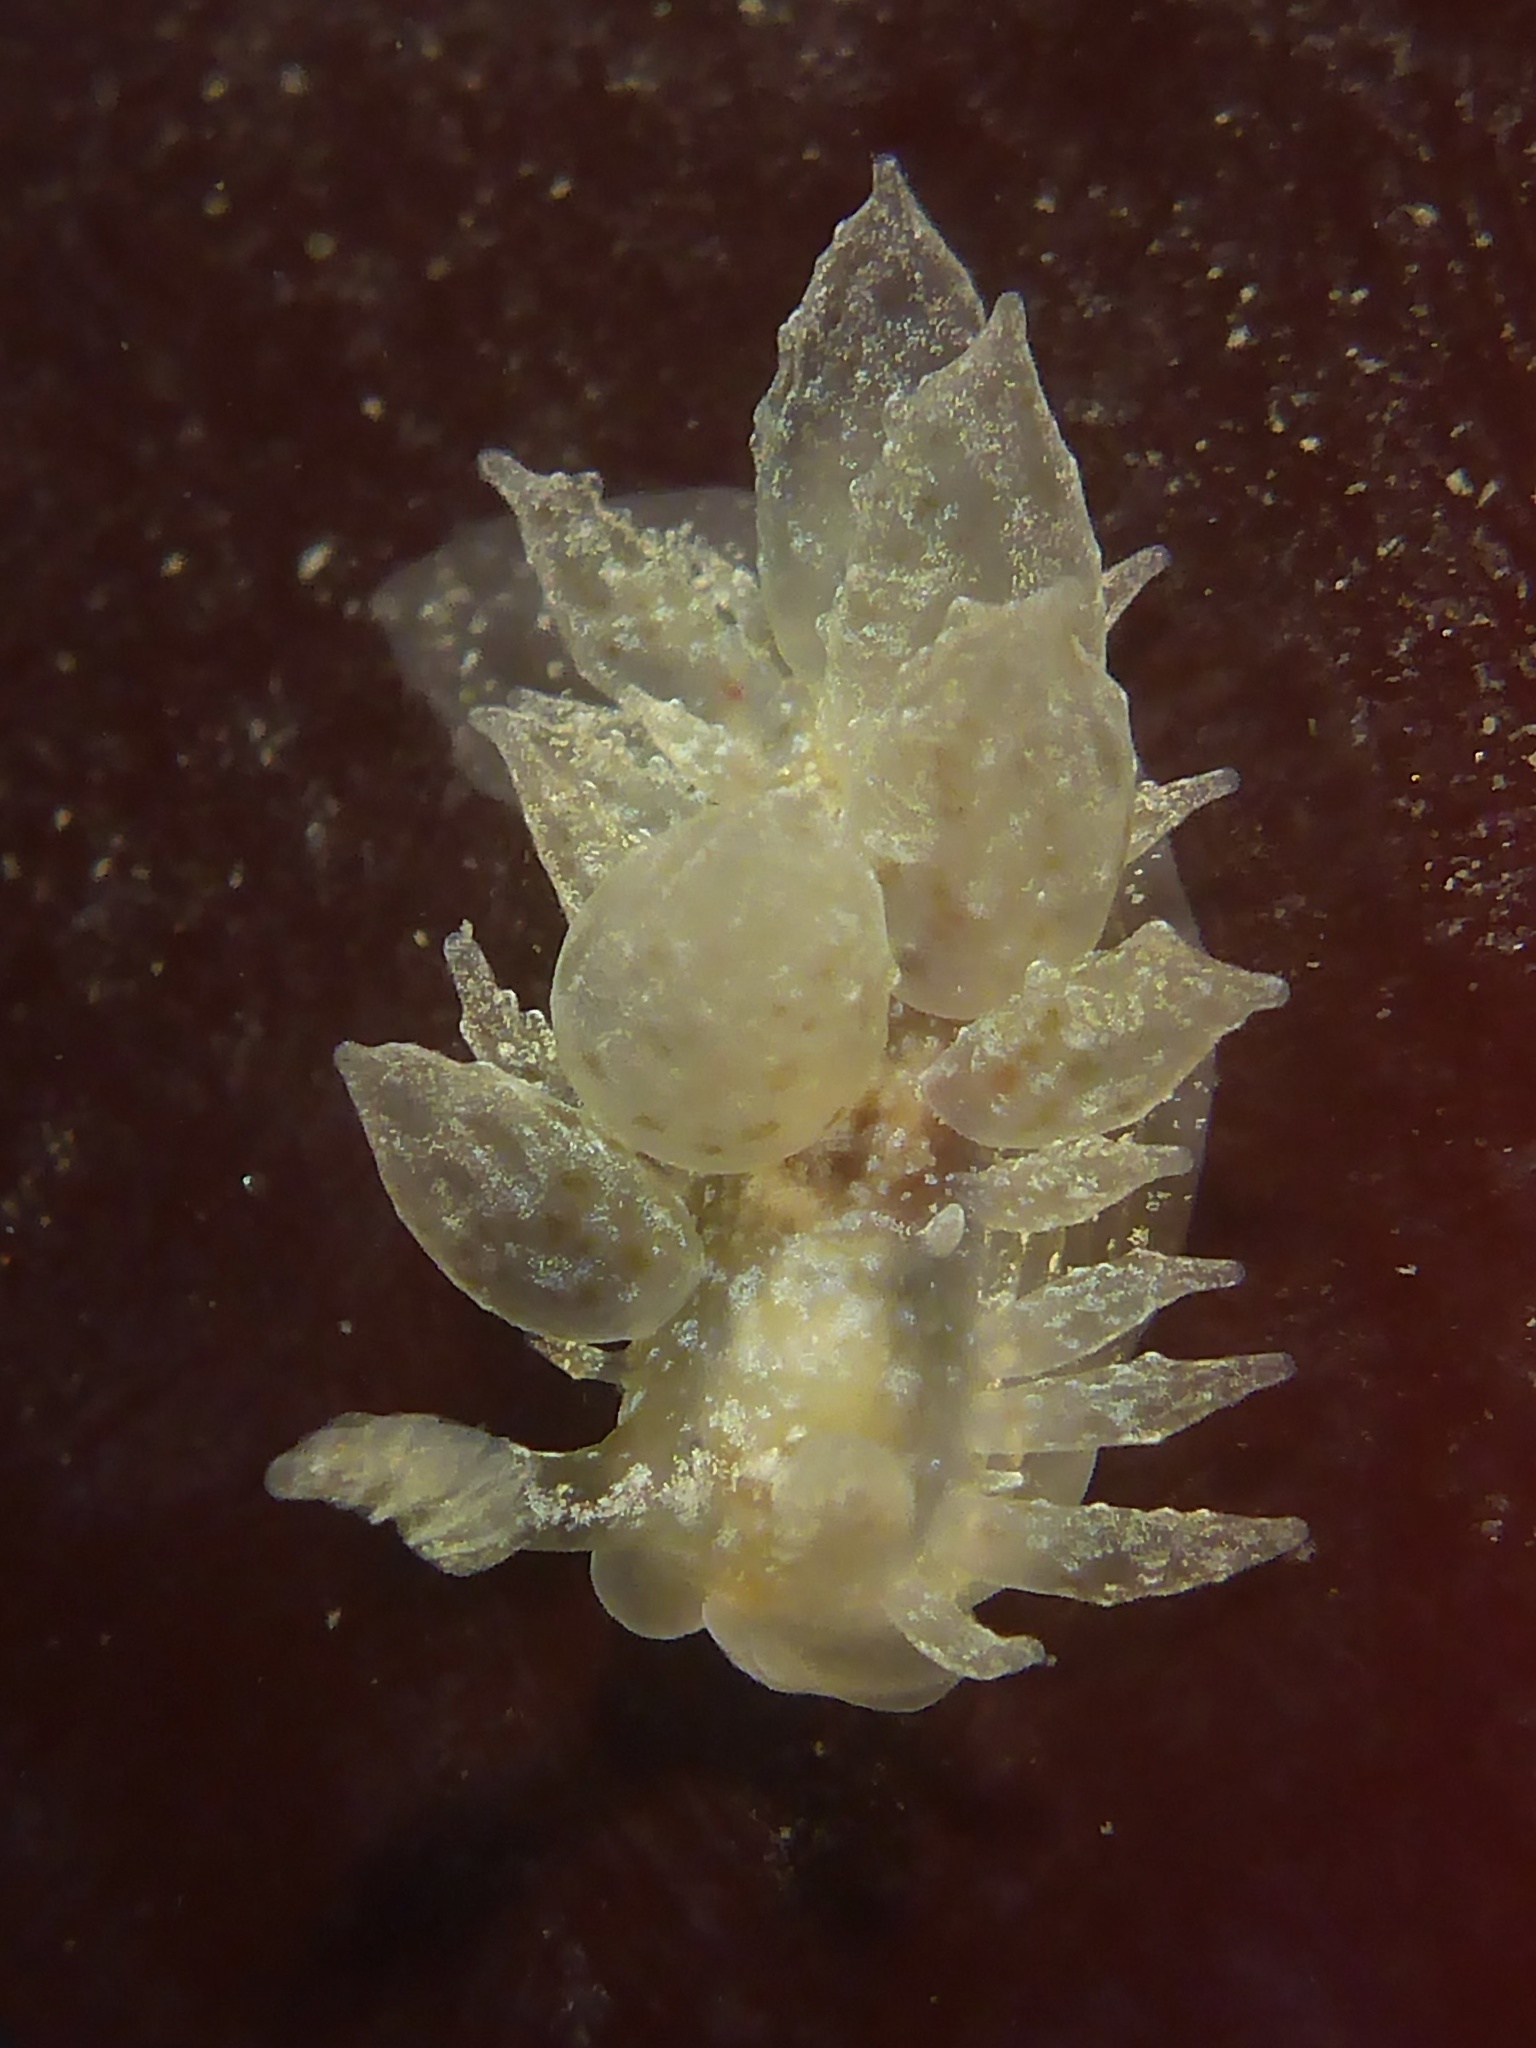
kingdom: Animalia
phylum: Mollusca
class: Gastropoda
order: Nudibranchia
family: Dironidae
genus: Dirona
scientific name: Dirona picta
